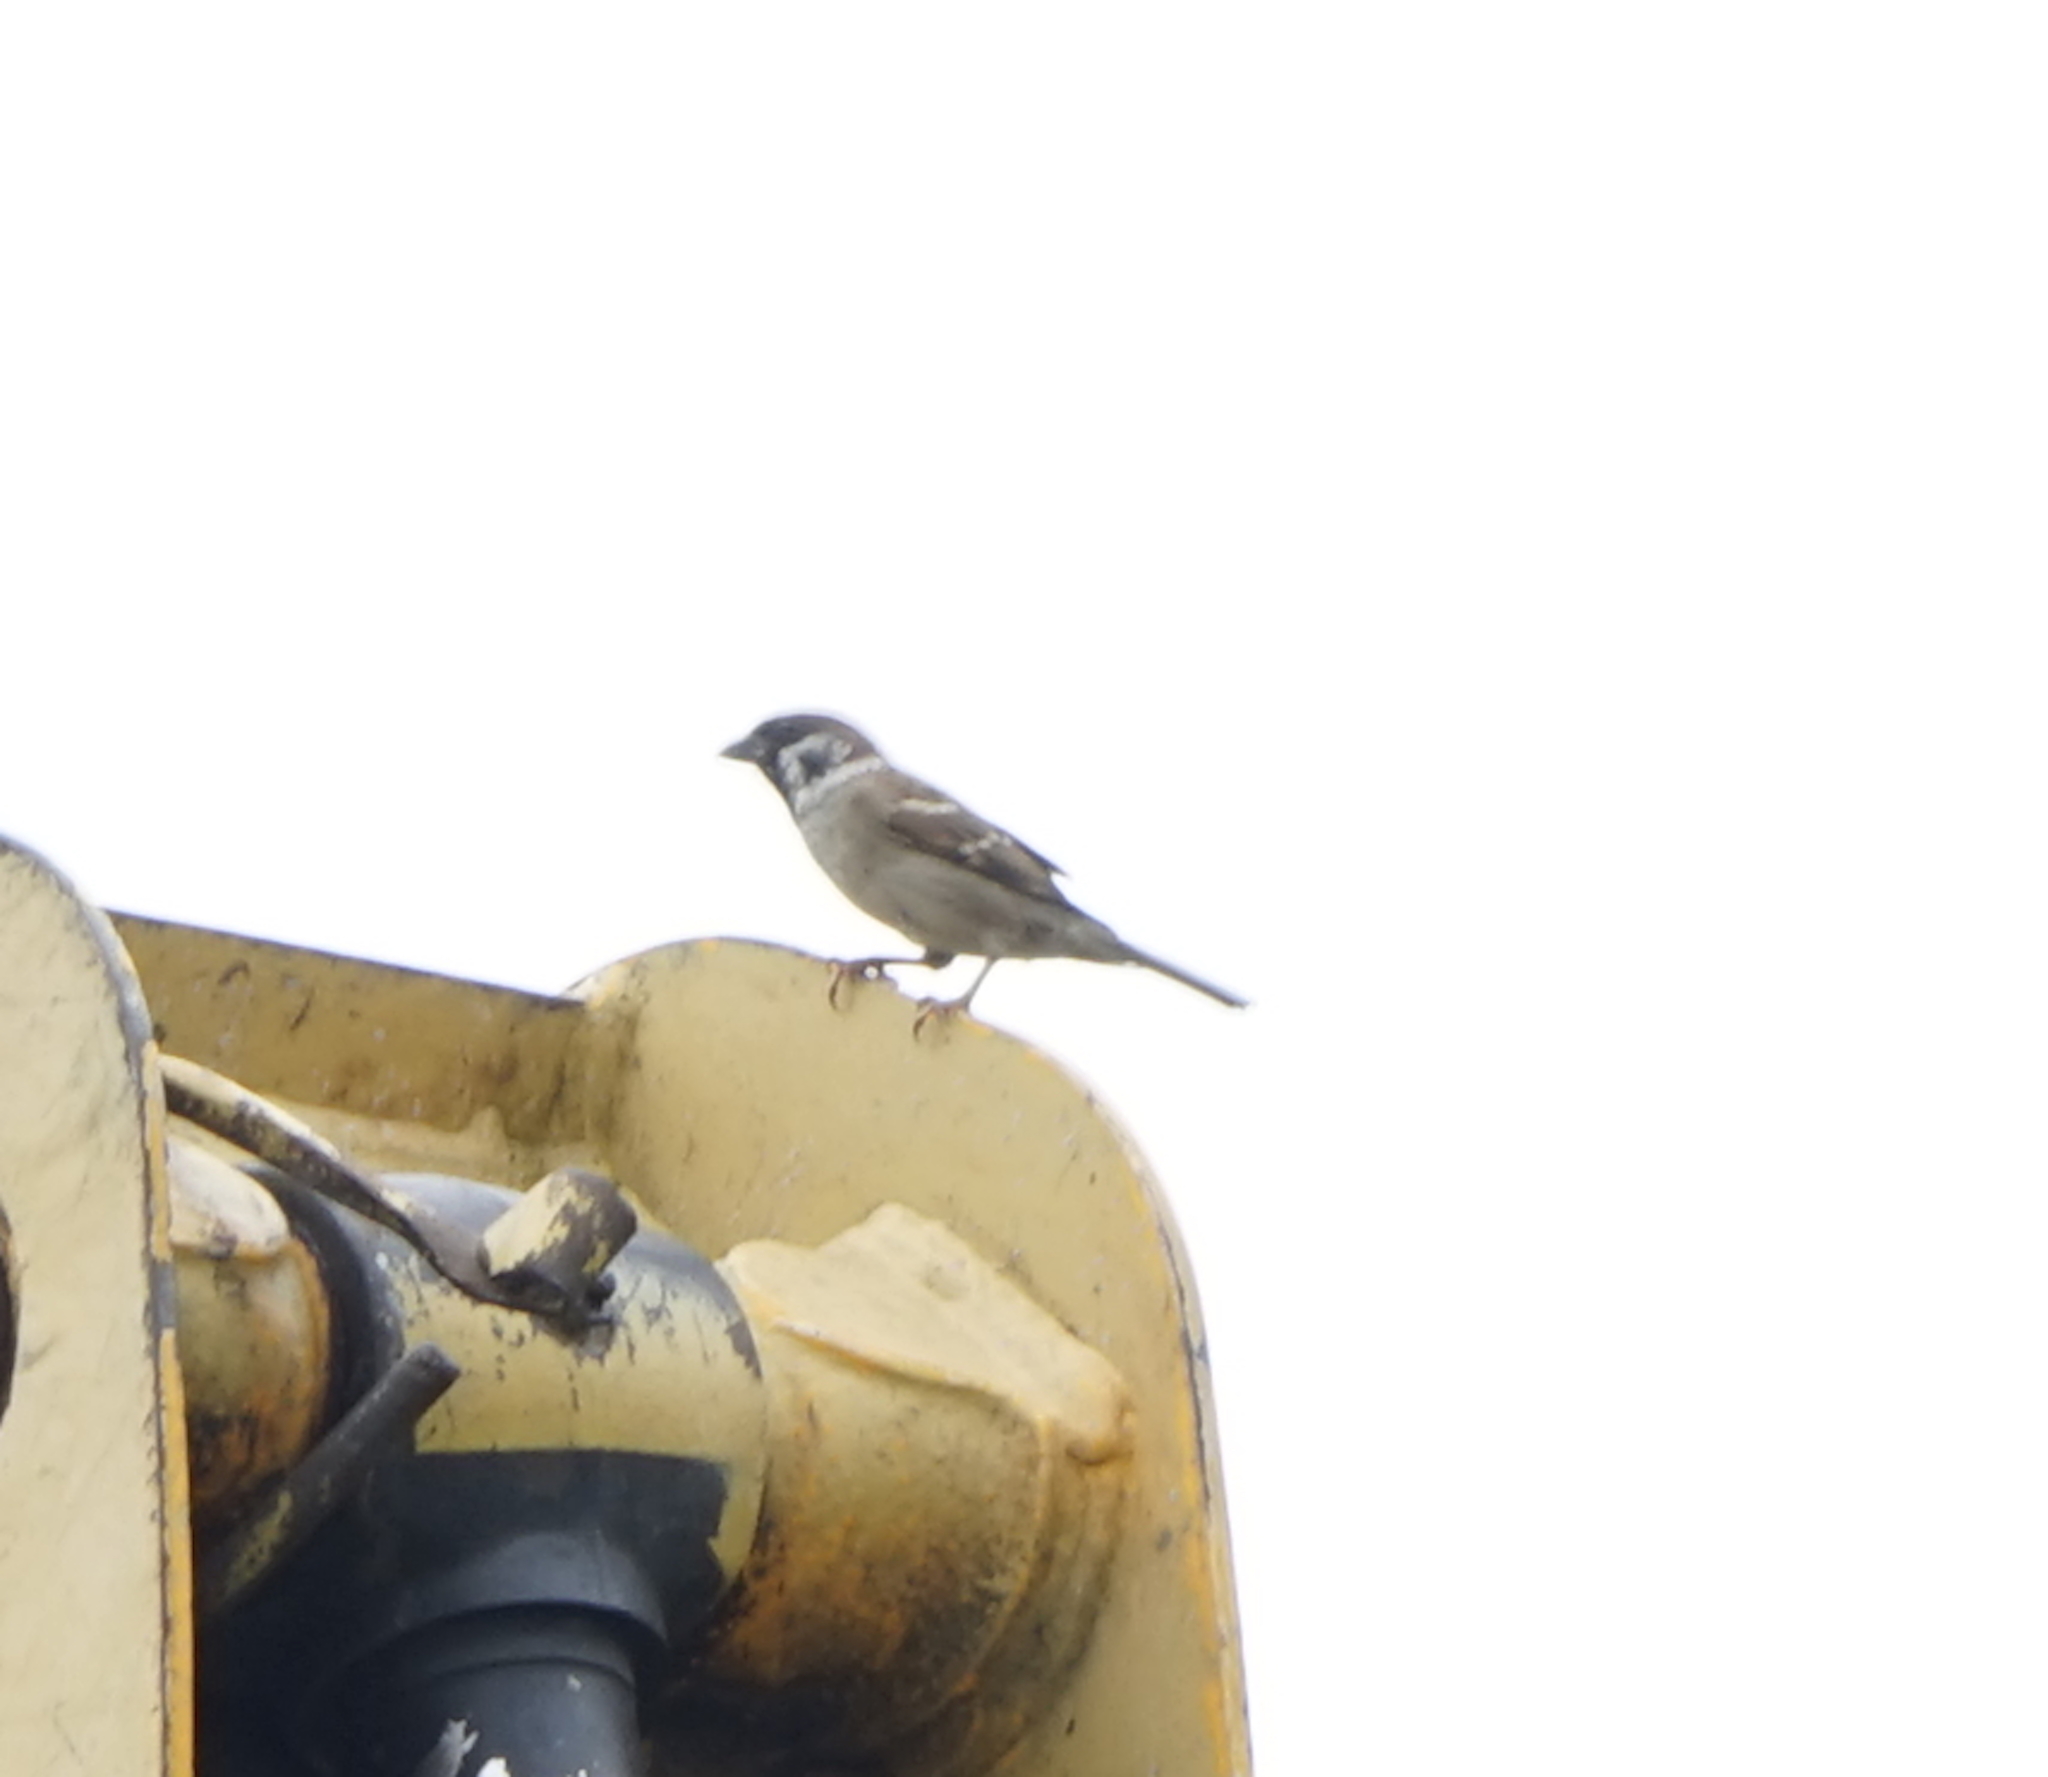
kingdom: Animalia
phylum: Chordata
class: Aves
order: Passeriformes
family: Passeridae
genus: Passer
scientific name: Passer montanus
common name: Eurasian tree sparrow
